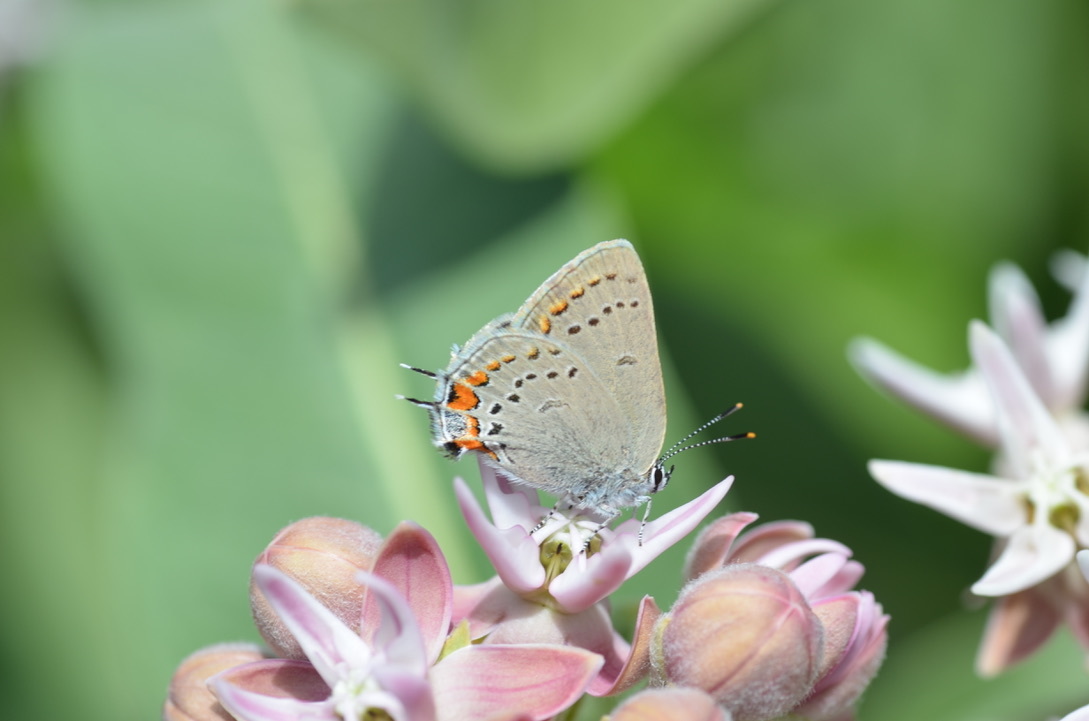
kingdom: Animalia
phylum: Arthropoda
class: Insecta
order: Lepidoptera
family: Lycaenidae
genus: Strymon
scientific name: Strymon acadica
